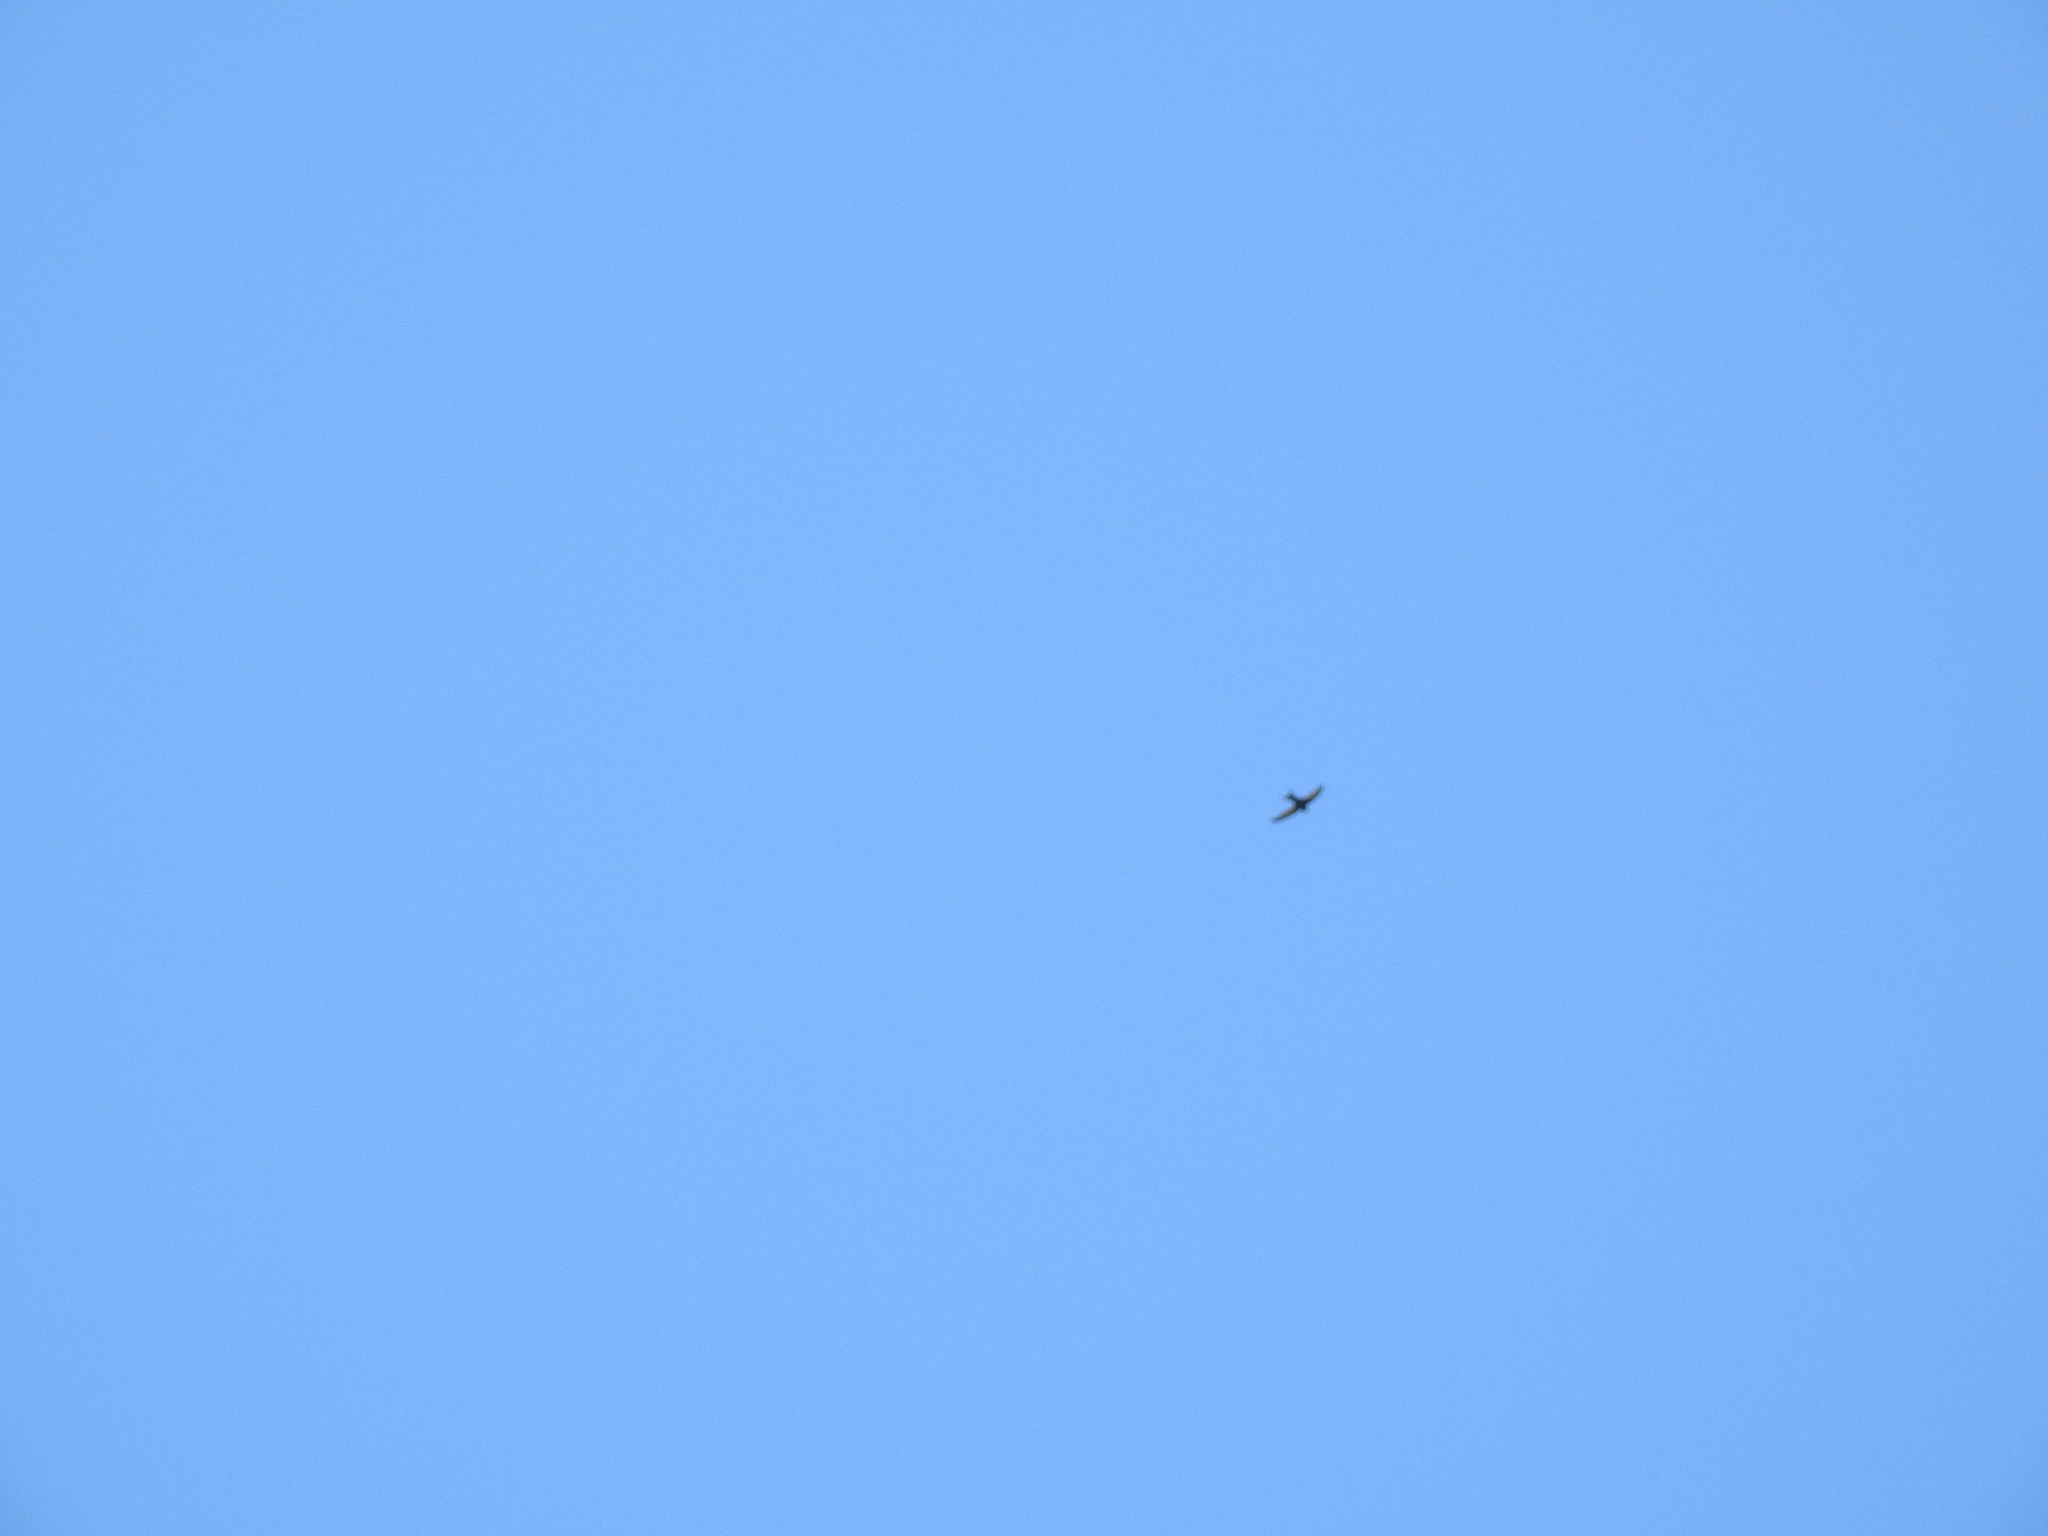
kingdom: Animalia
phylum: Chordata
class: Aves
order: Apodiformes
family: Apodidae
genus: Apus
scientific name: Apus apus
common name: Common swift
